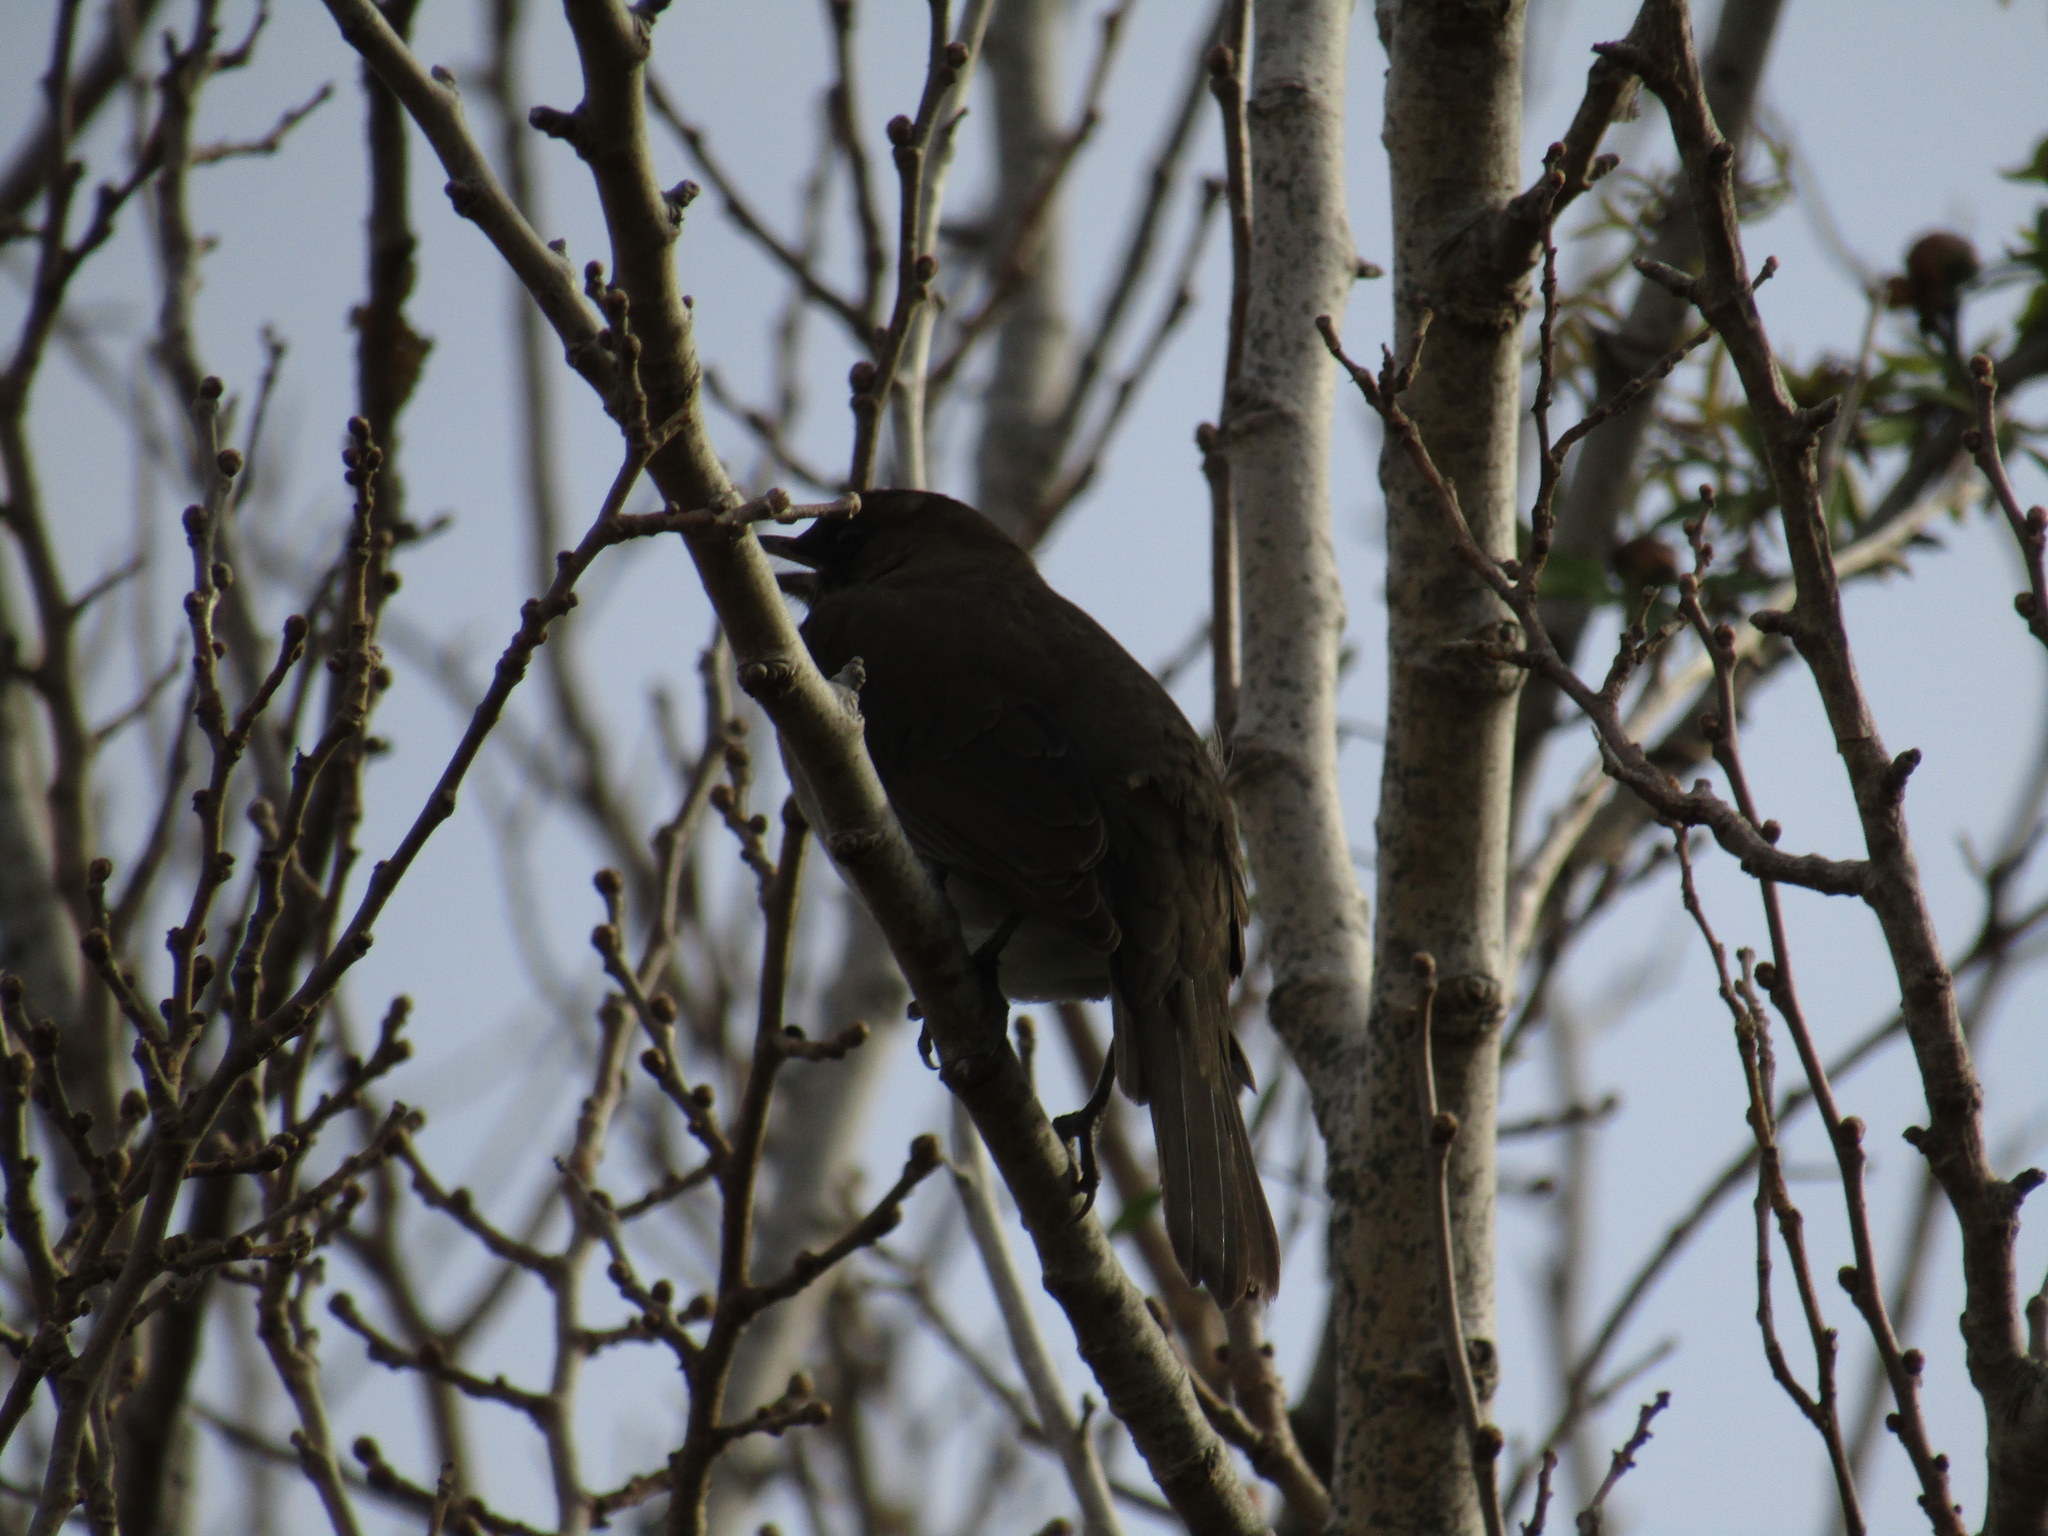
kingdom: Animalia
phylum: Chordata
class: Aves
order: Passeriformes
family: Turdidae
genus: Turdus
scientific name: Turdus amaurochalinus
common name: Creamy-bellied thrush
